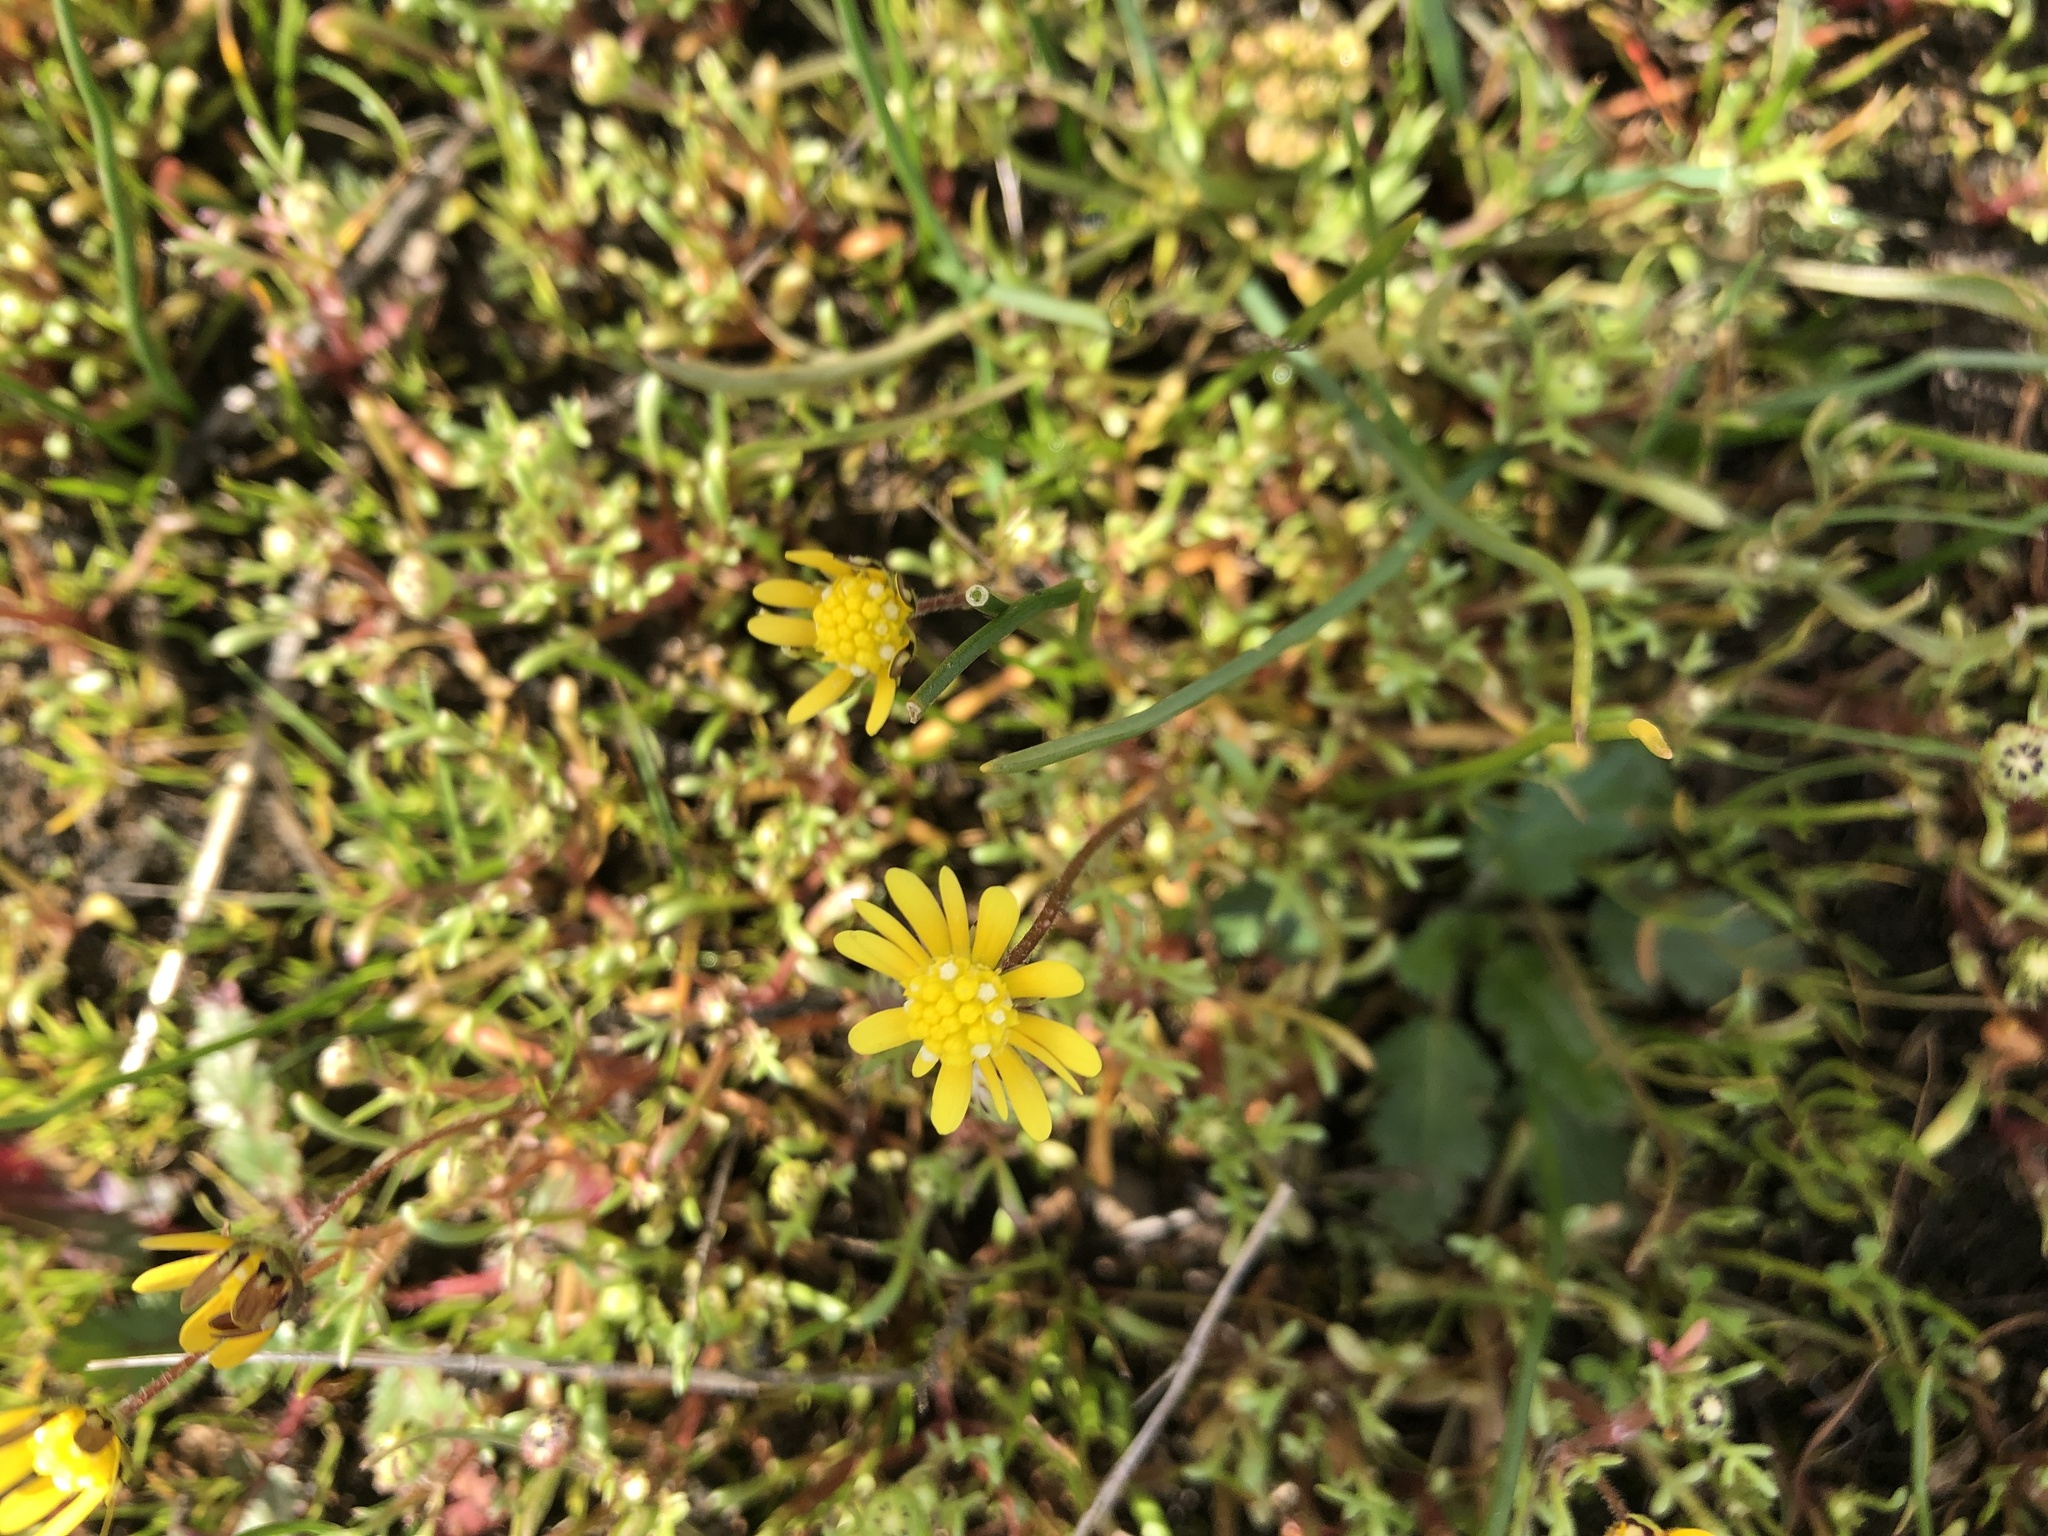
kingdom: Plantae
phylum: Tracheophyta
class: Magnoliopsida
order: Asterales
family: Asteraceae
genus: Blennosperma
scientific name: Blennosperma nanum
